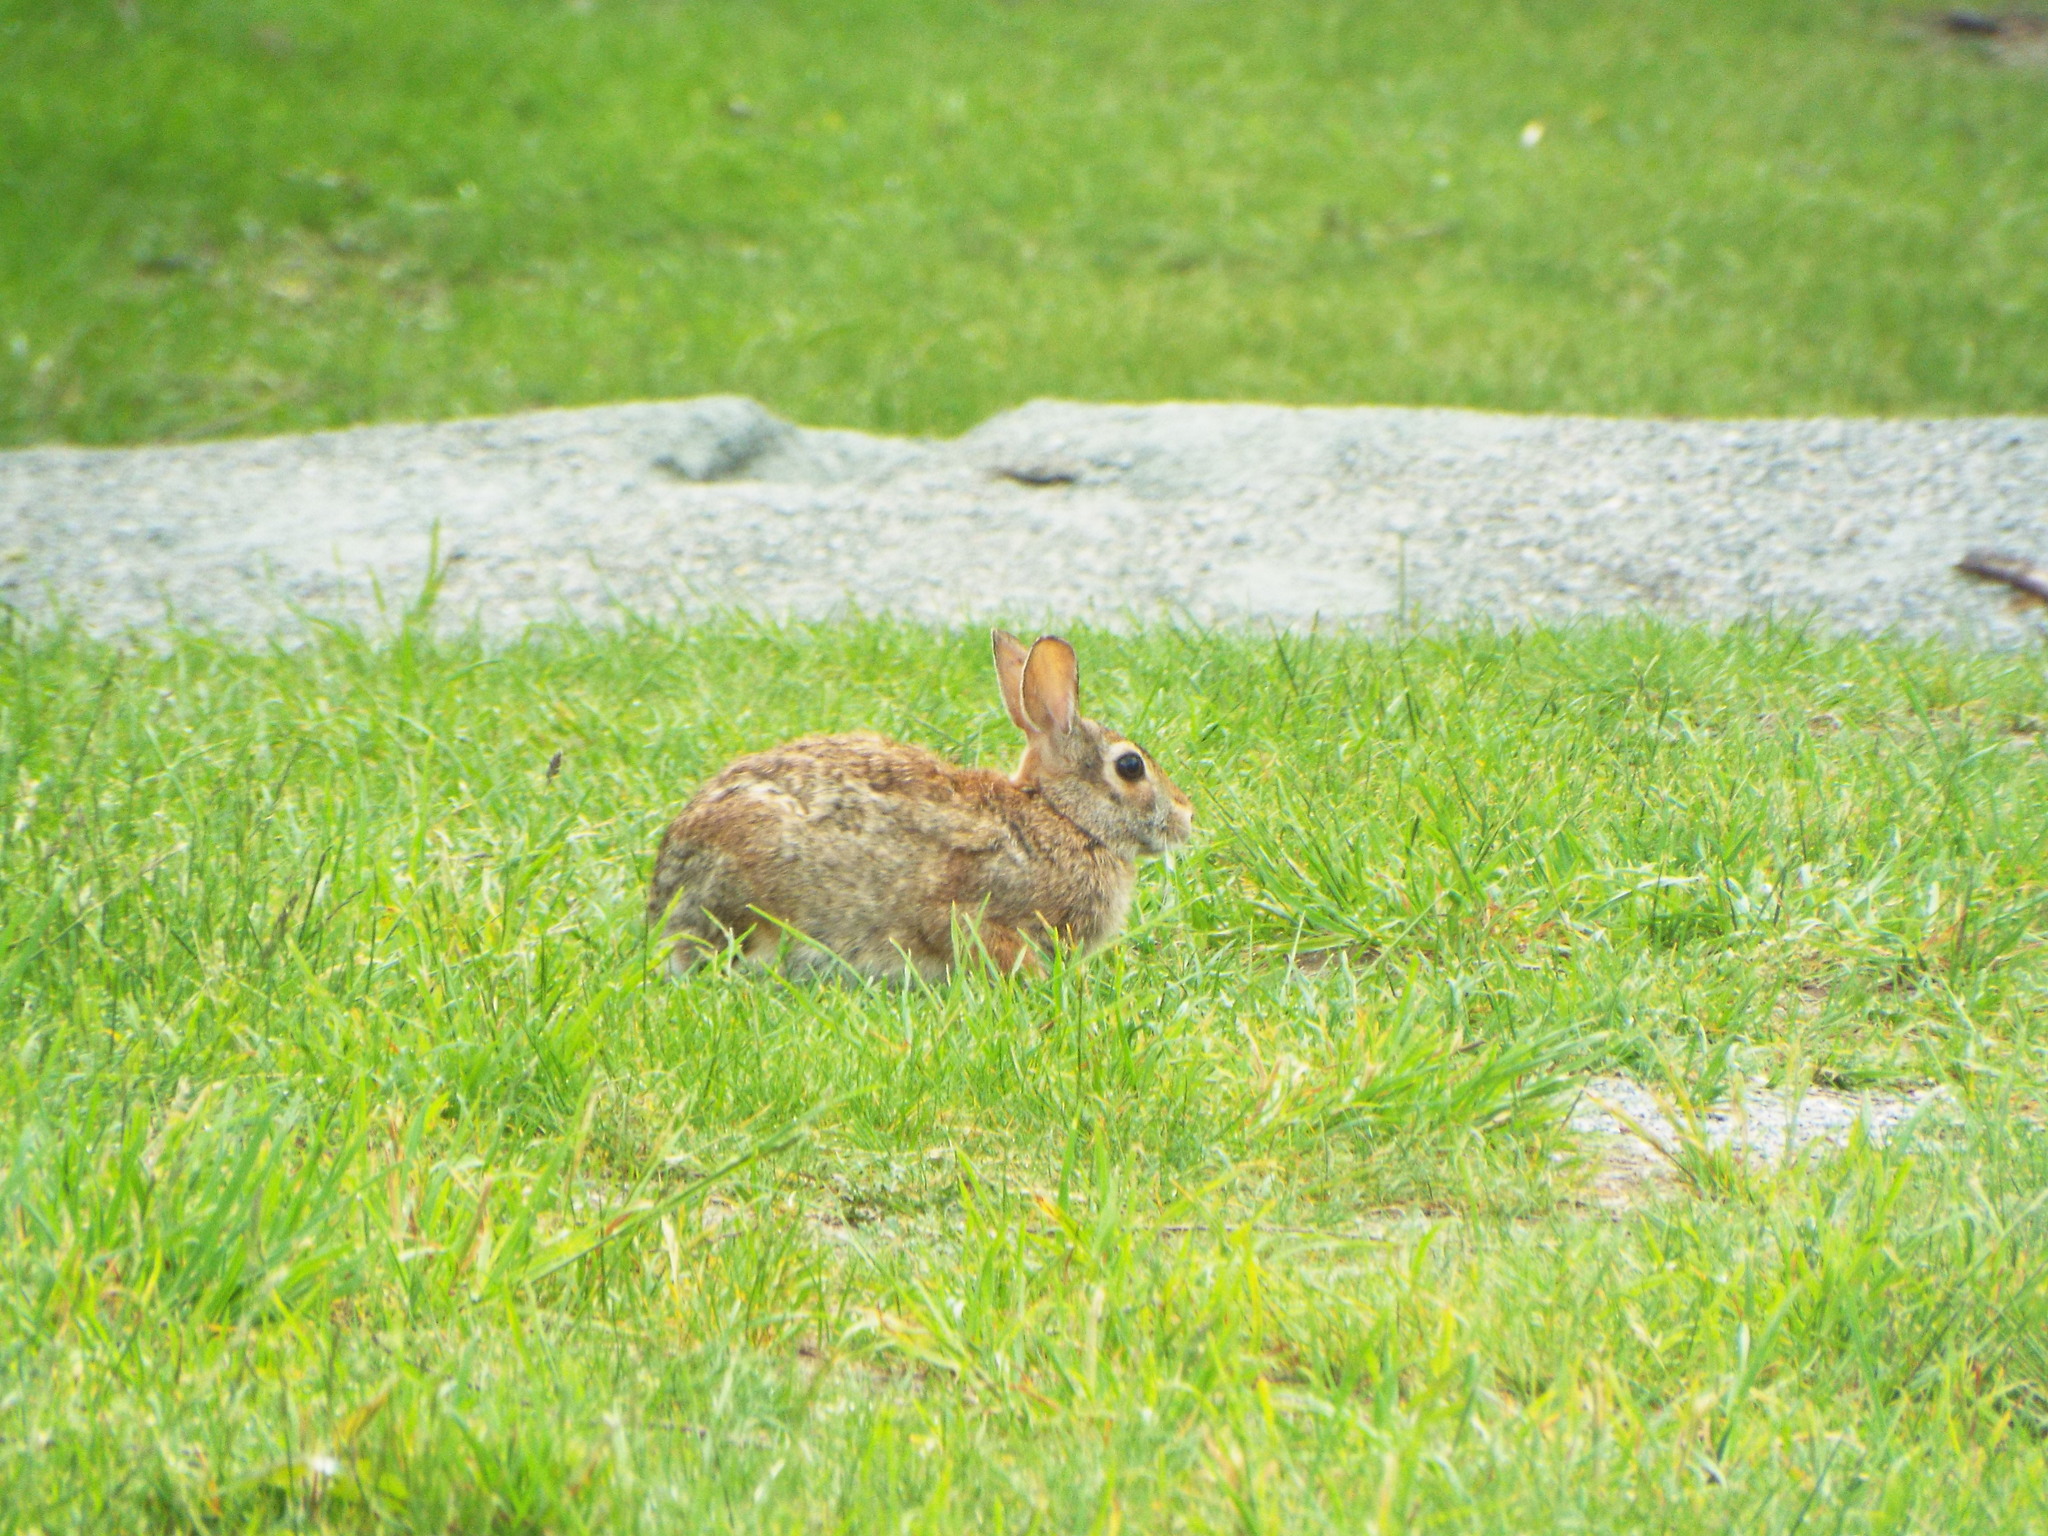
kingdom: Animalia
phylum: Chordata
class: Mammalia
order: Lagomorpha
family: Leporidae
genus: Sylvilagus
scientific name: Sylvilagus floridanus
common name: Eastern cottontail
